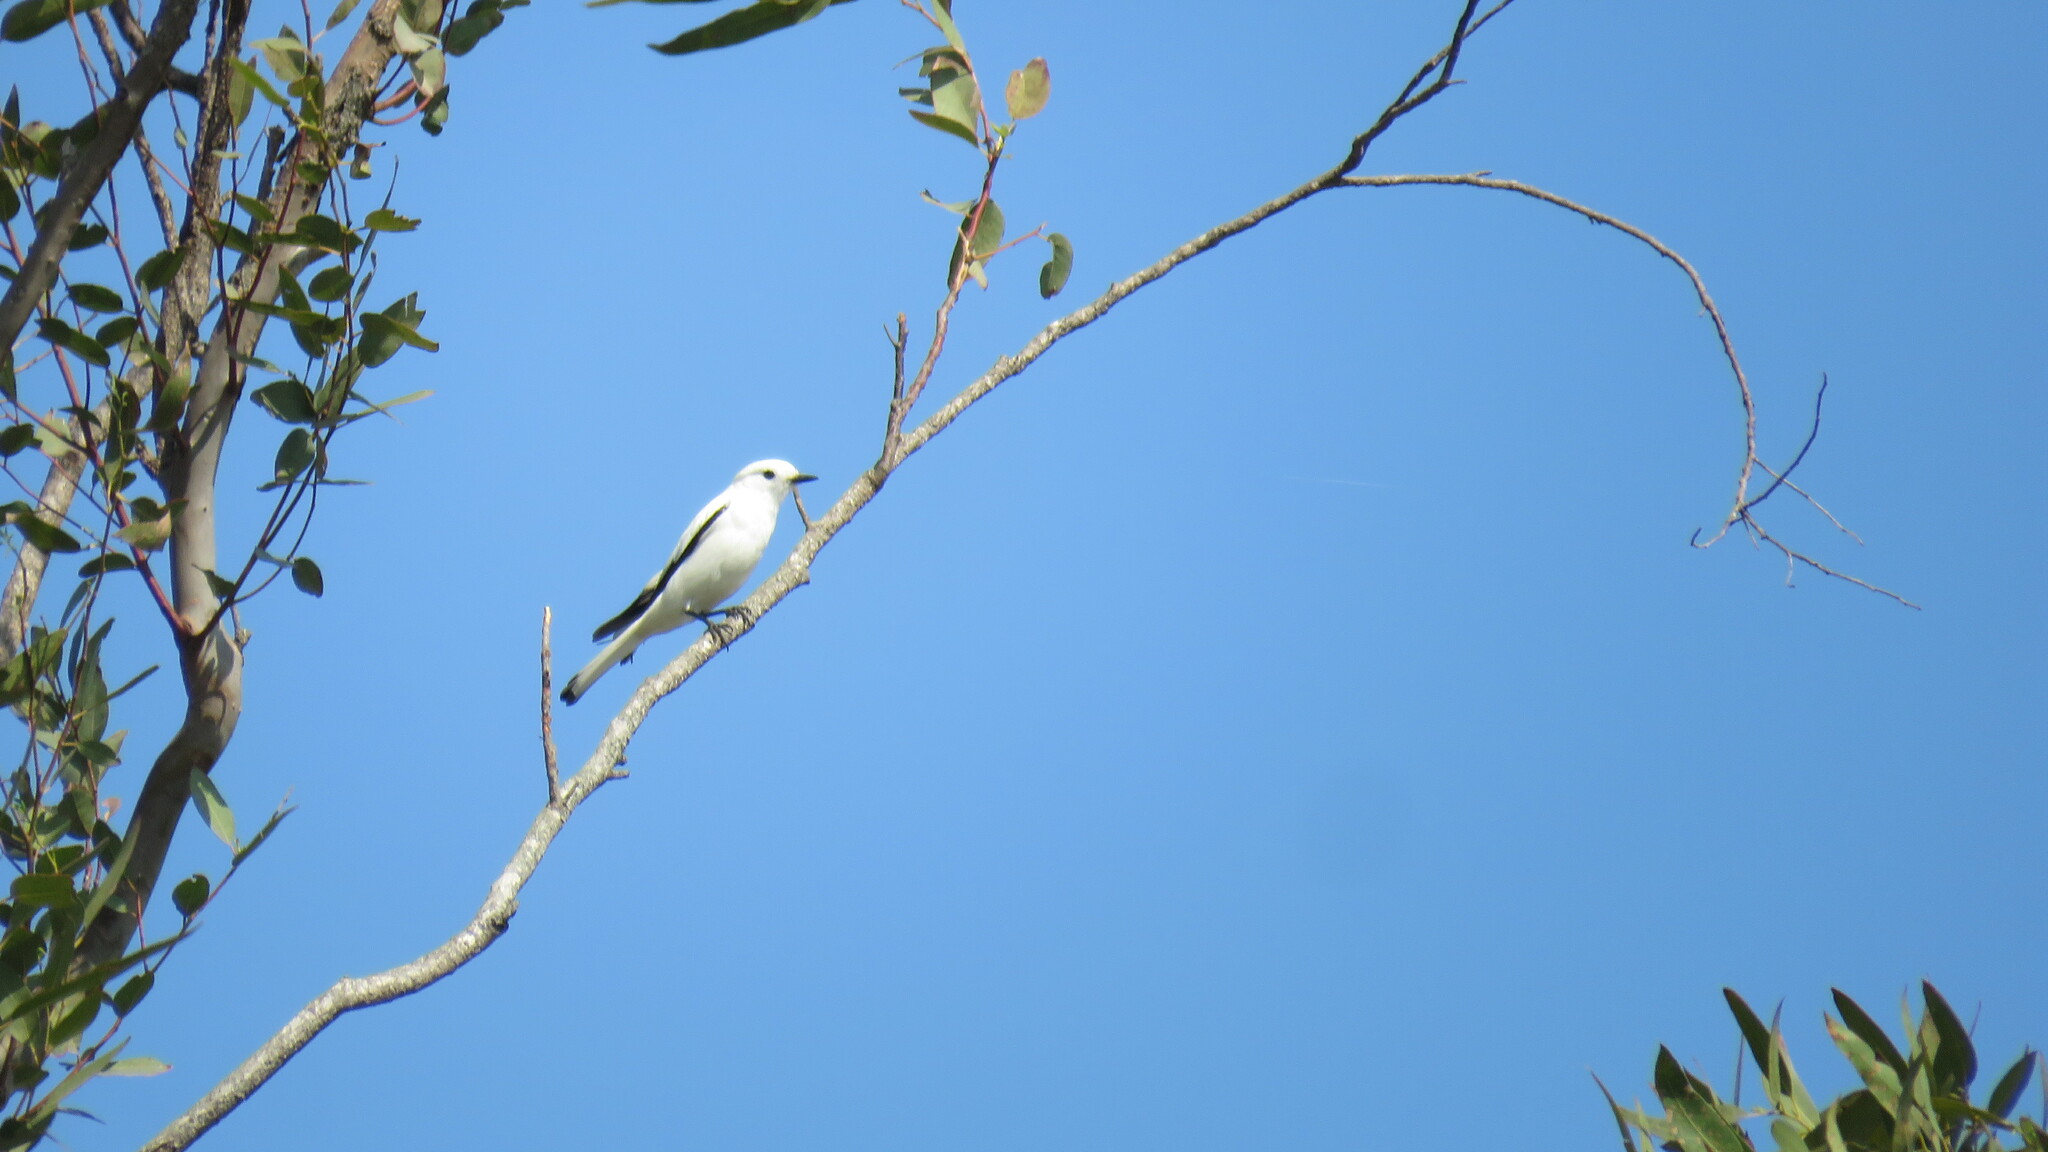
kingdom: Animalia
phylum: Chordata
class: Aves
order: Passeriformes
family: Tyrannidae
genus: Xolmis
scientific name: Xolmis irupero
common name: White monjita
